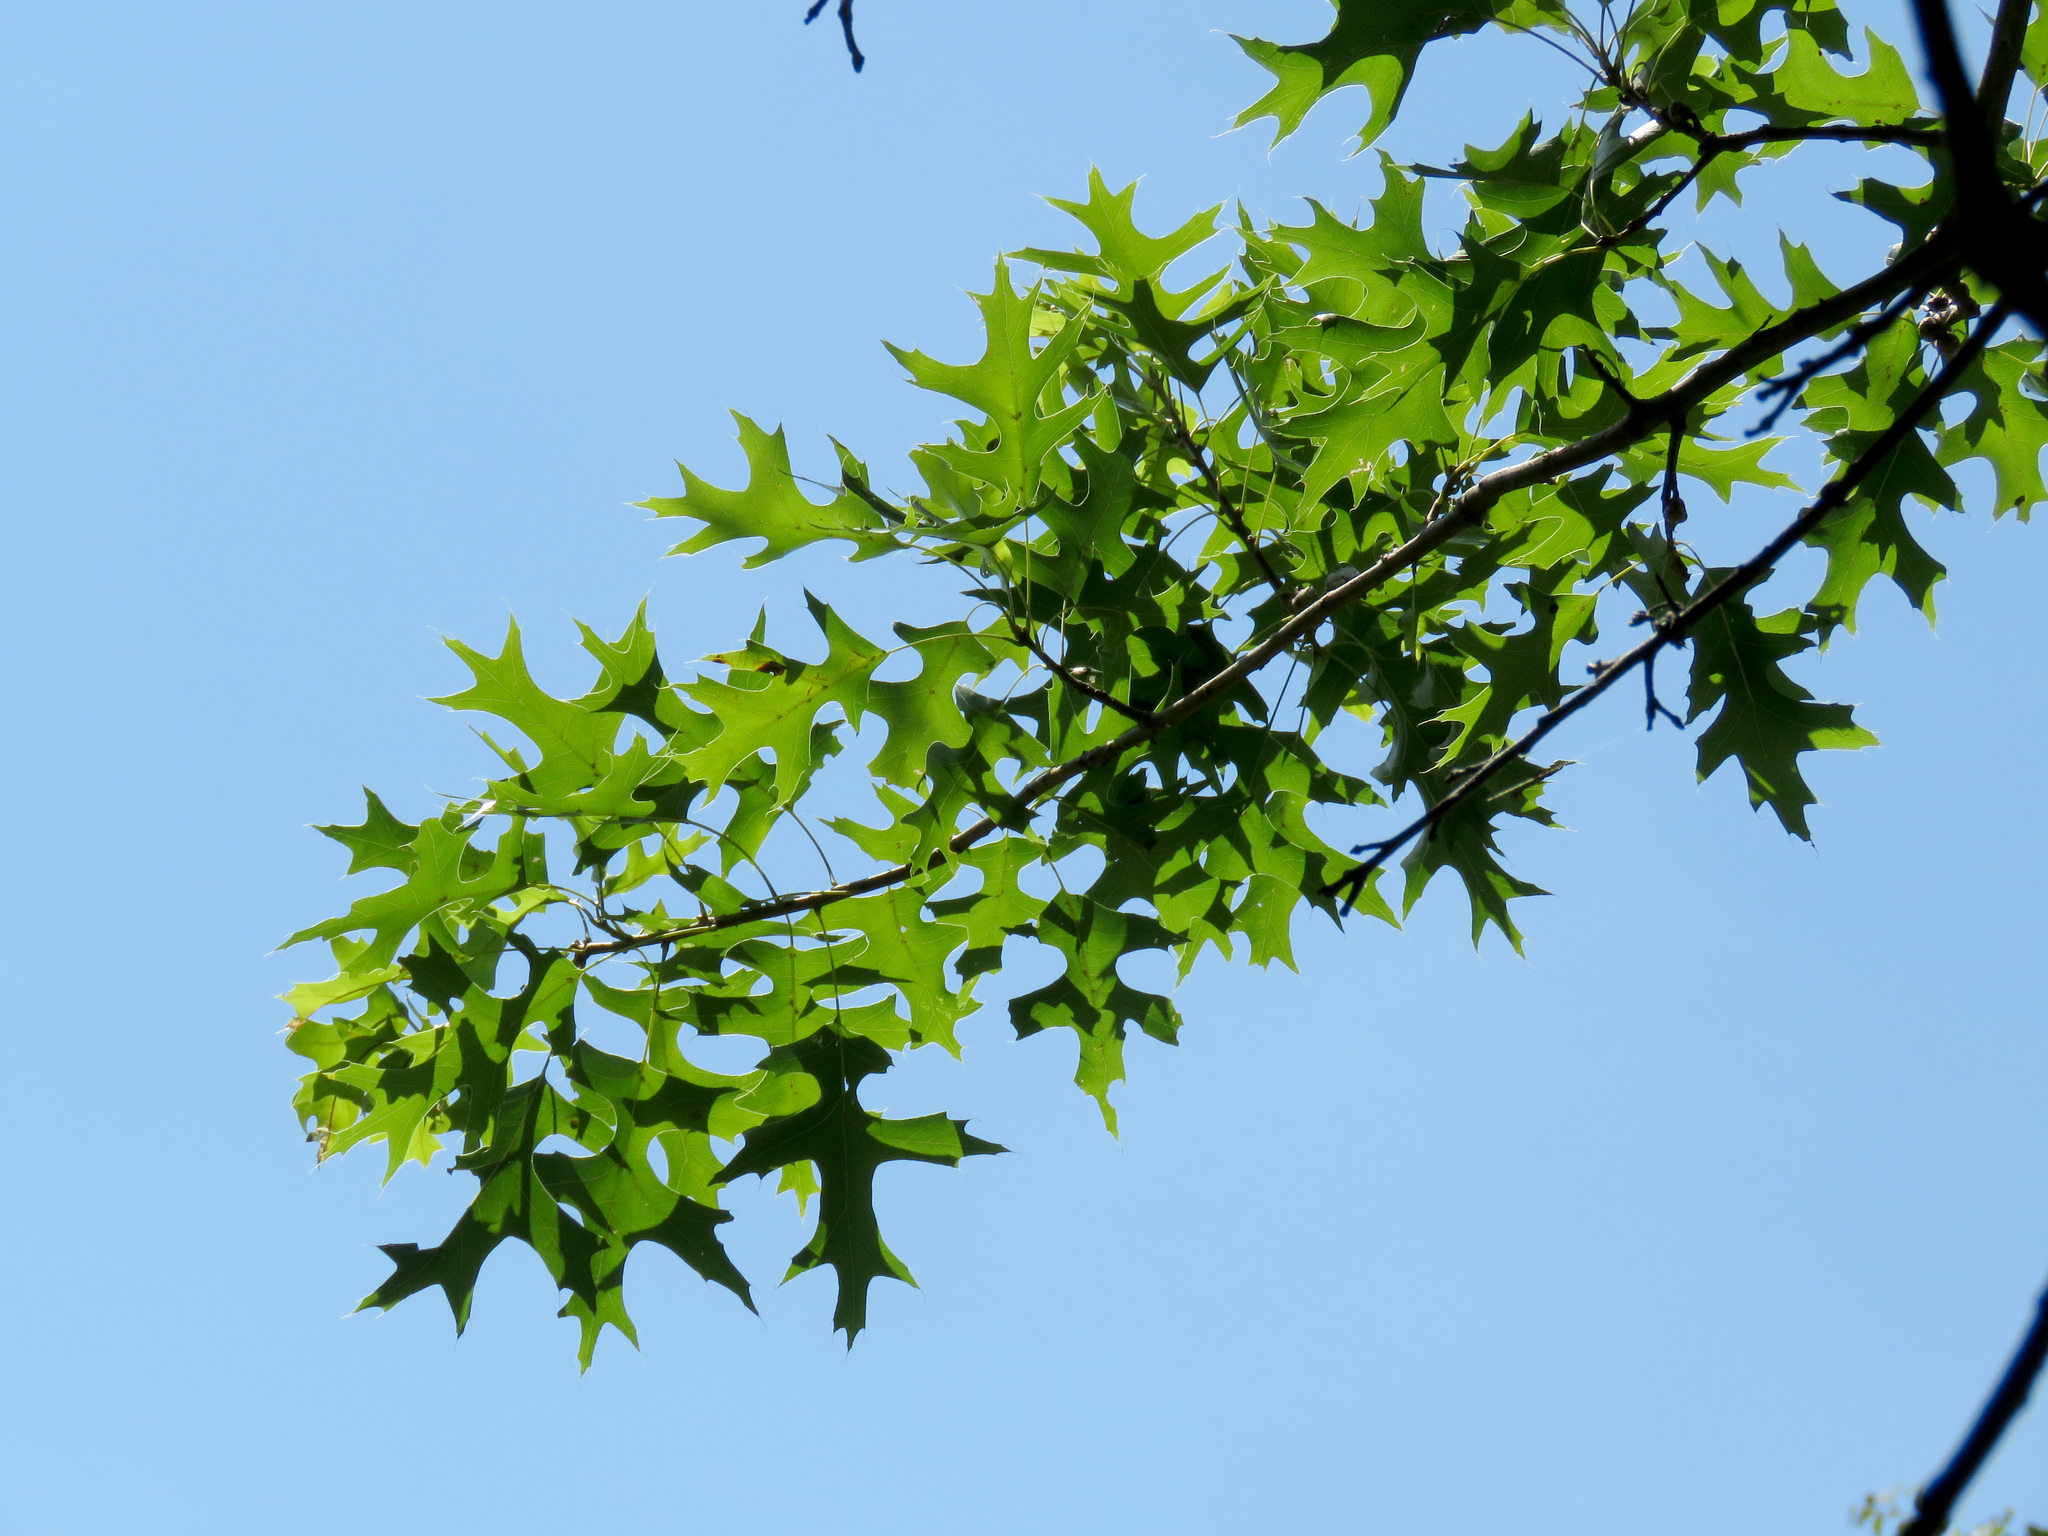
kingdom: Plantae
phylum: Tracheophyta
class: Magnoliopsida
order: Fagales
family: Fagaceae
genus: Quercus
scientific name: Quercus palustris
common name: Pin oak
